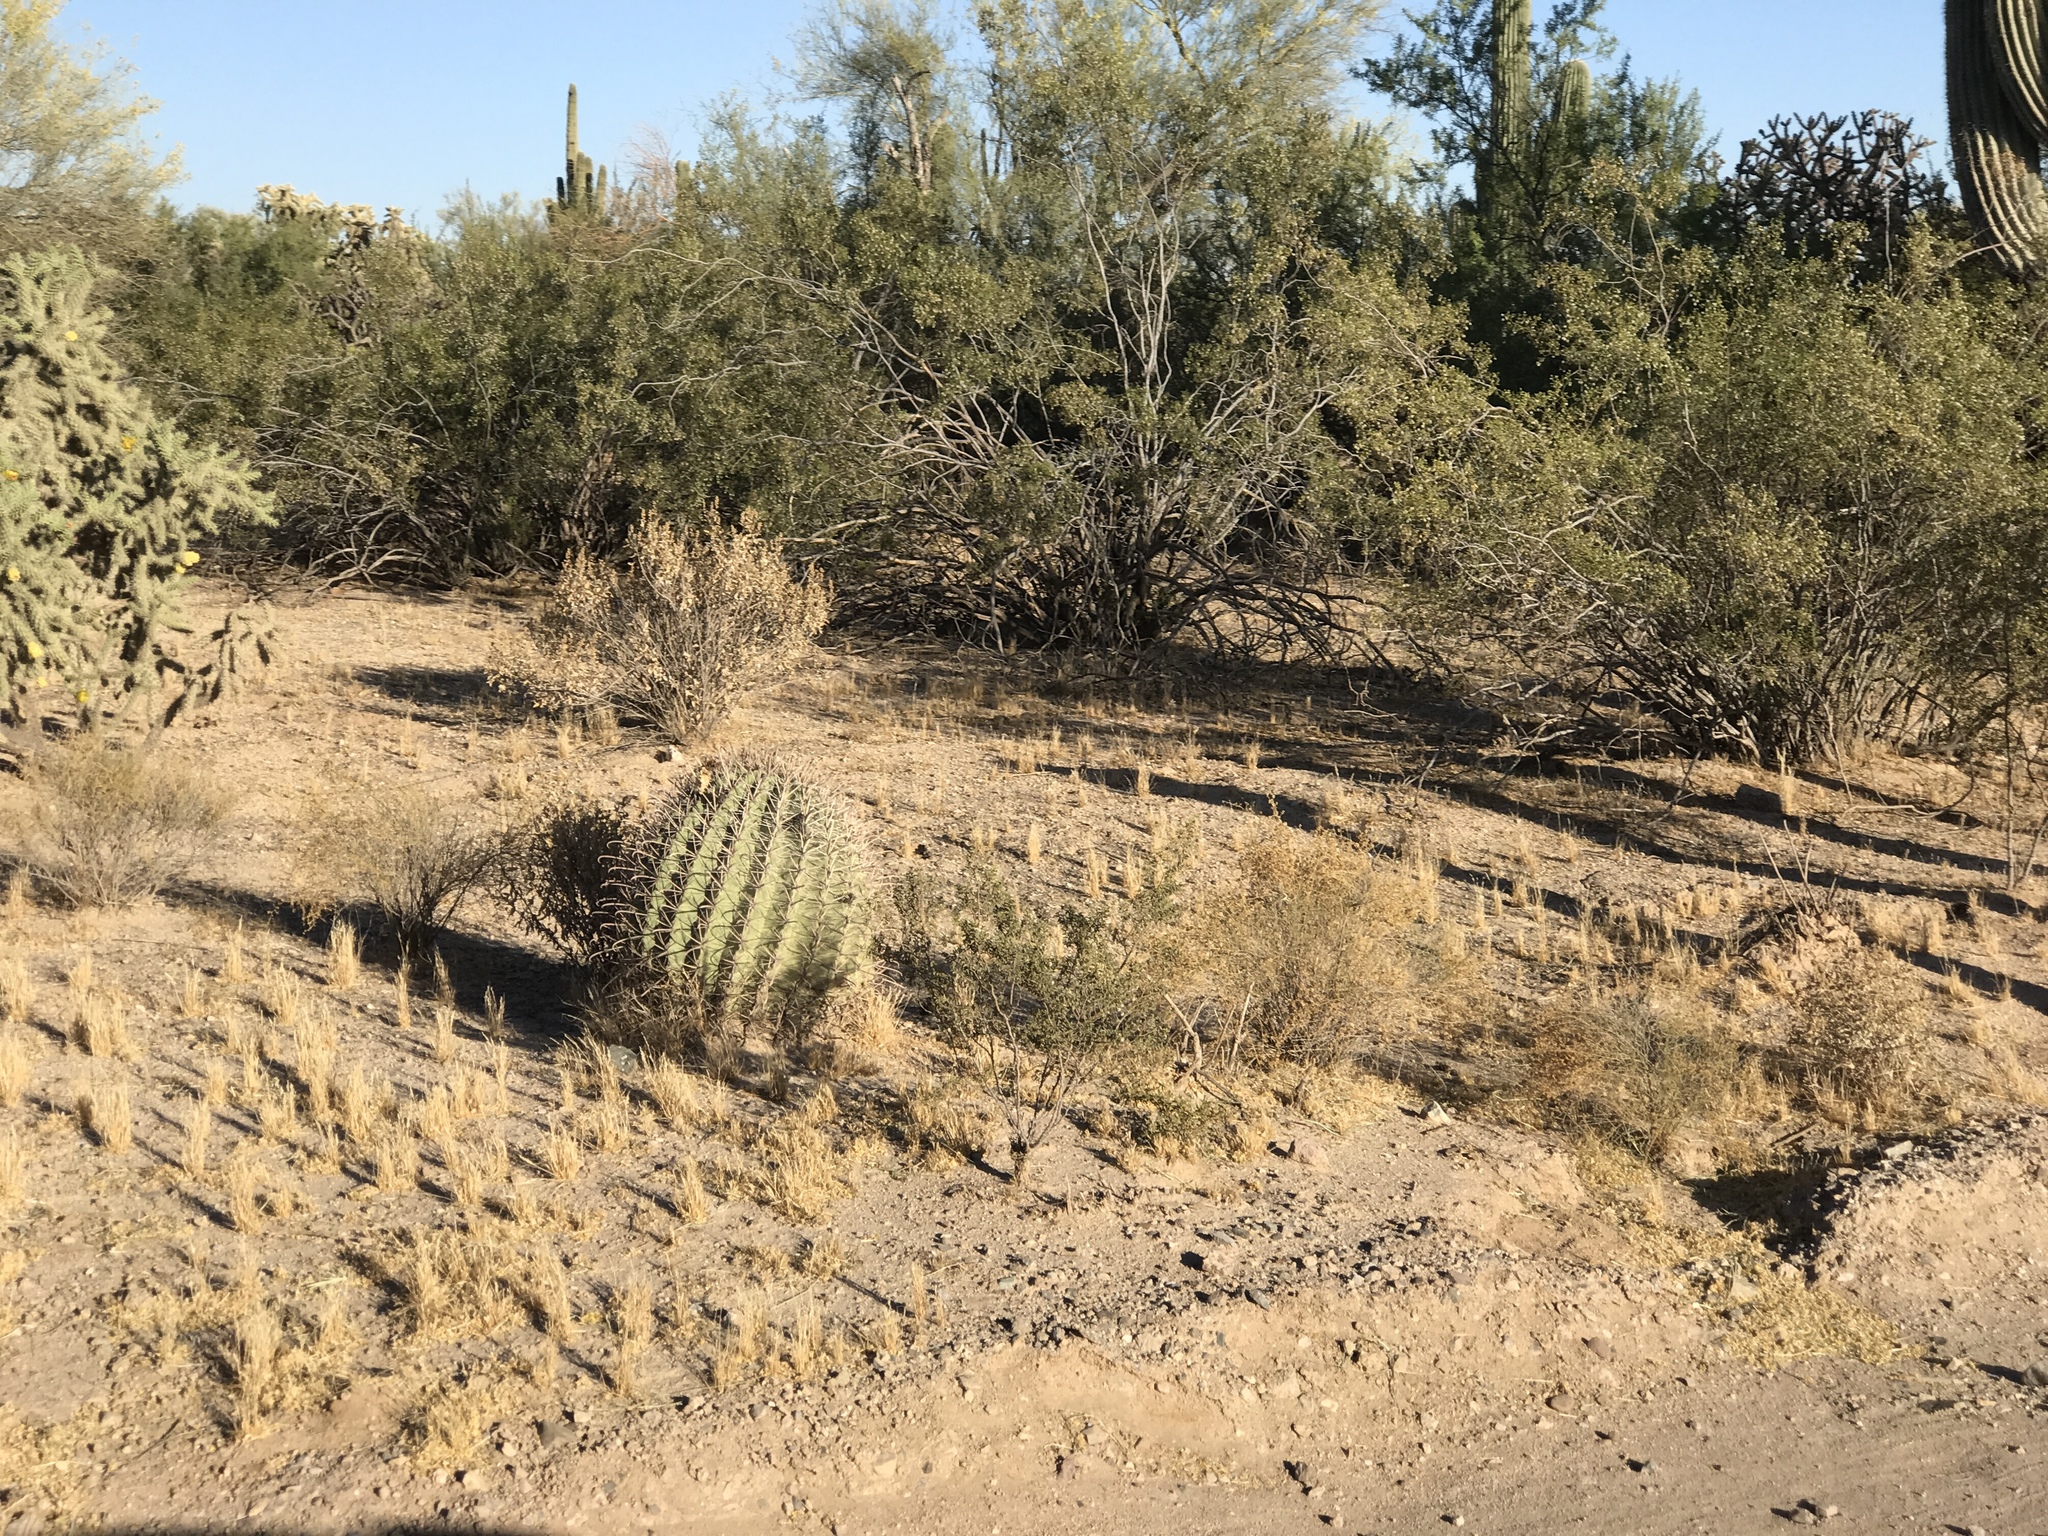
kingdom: Plantae
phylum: Tracheophyta
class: Magnoliopsida
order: Caryophyllales
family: Cactaceae
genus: Ferocactus
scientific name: Ferocactus wislizeni
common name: Candy barrel cactus
